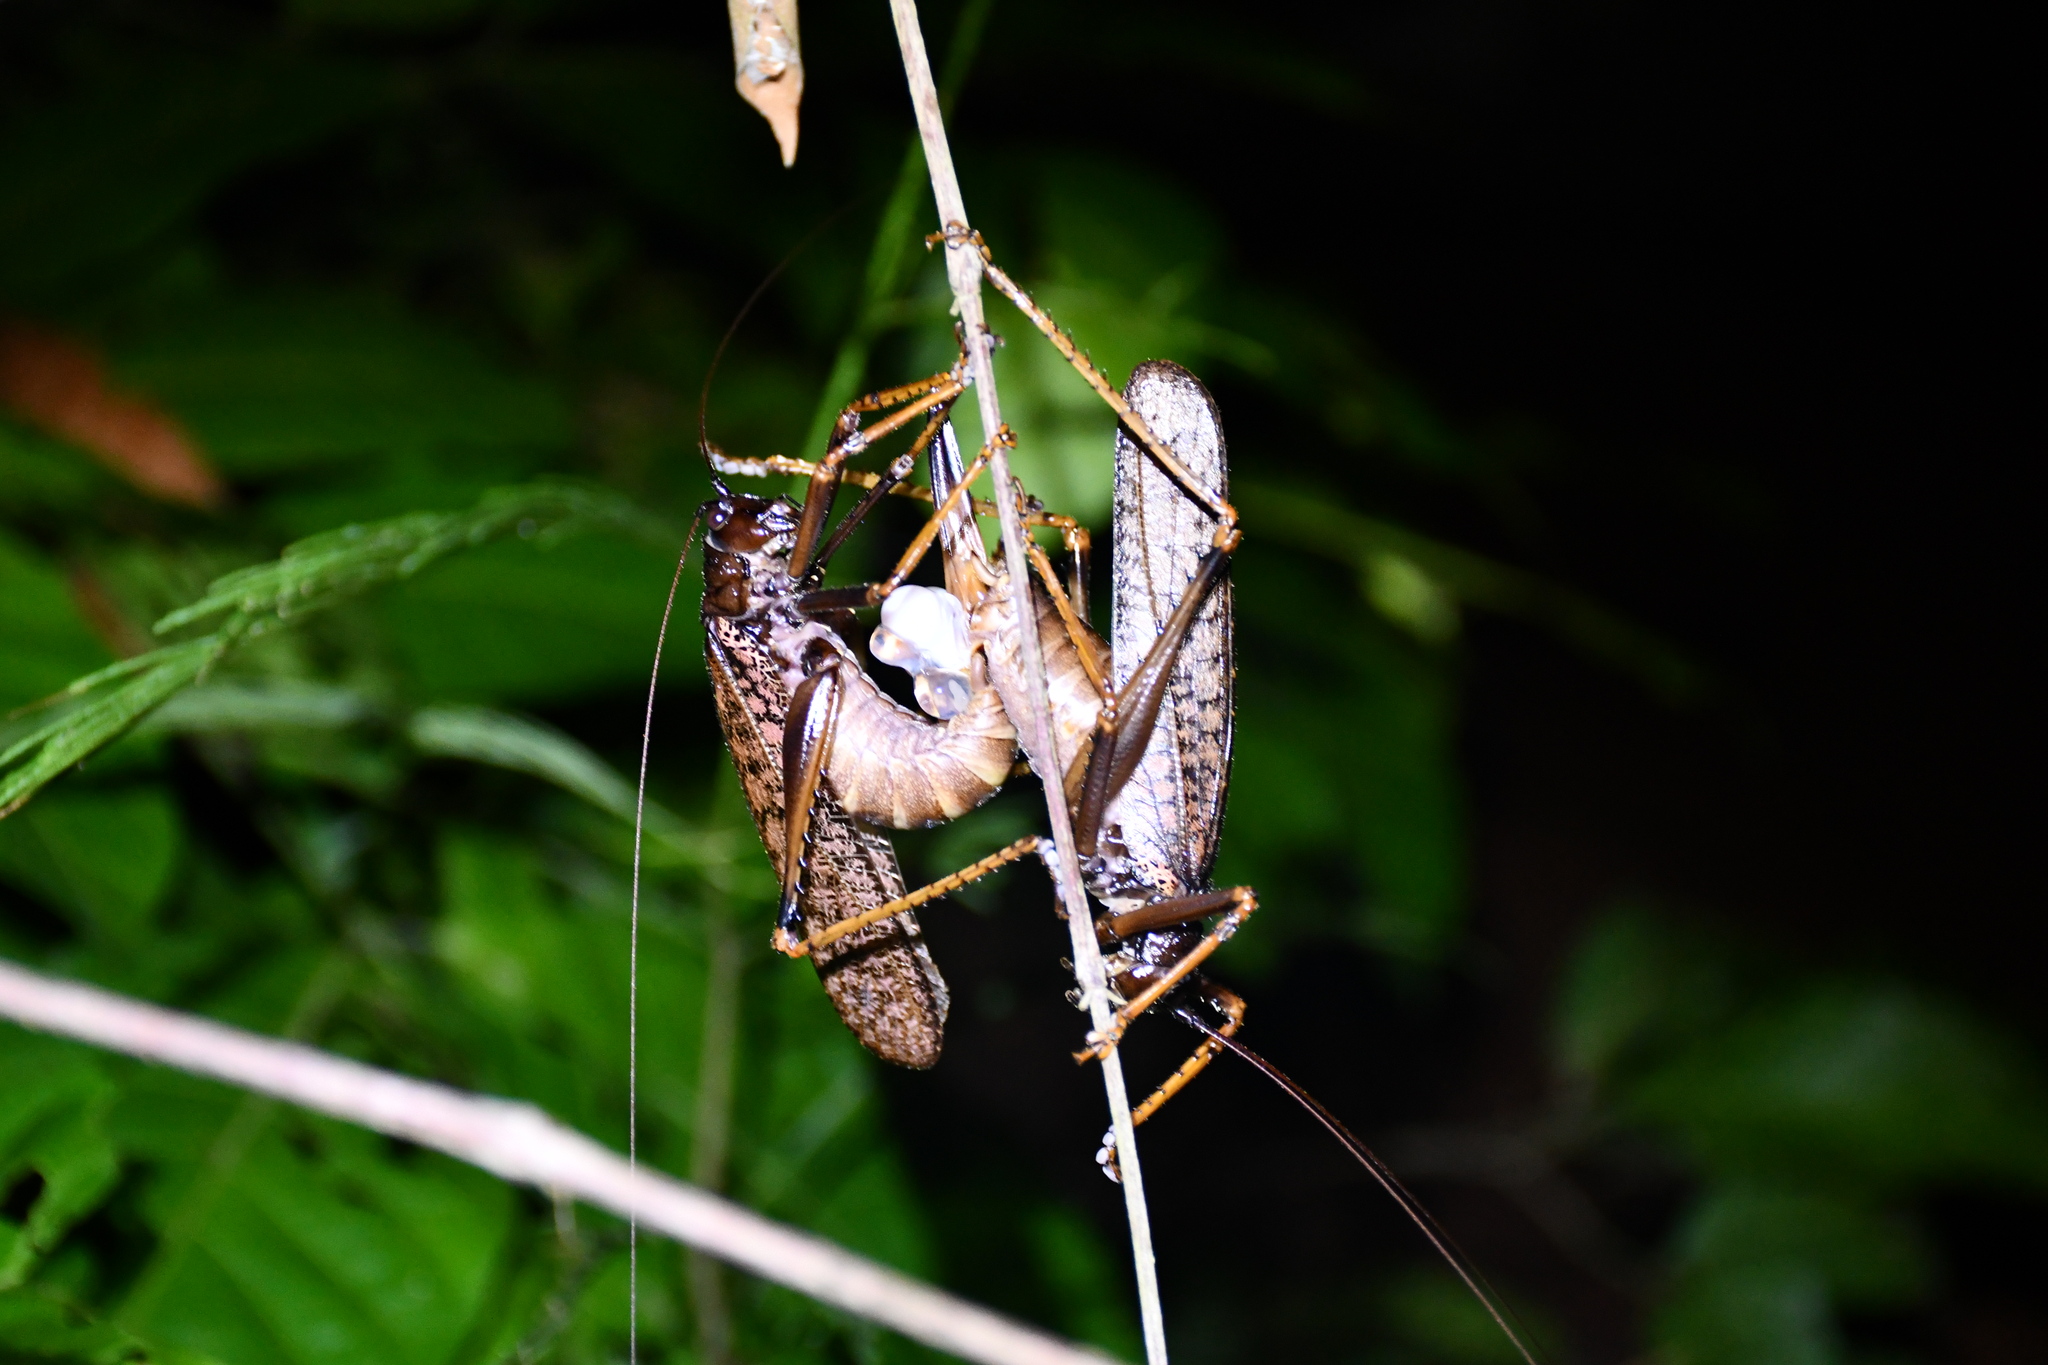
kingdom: Animalia
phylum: Arthropoda
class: Insecta
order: Orthoptera
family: Tettigoniidae
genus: Leptotettix
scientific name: Leptotettix bolivianus
